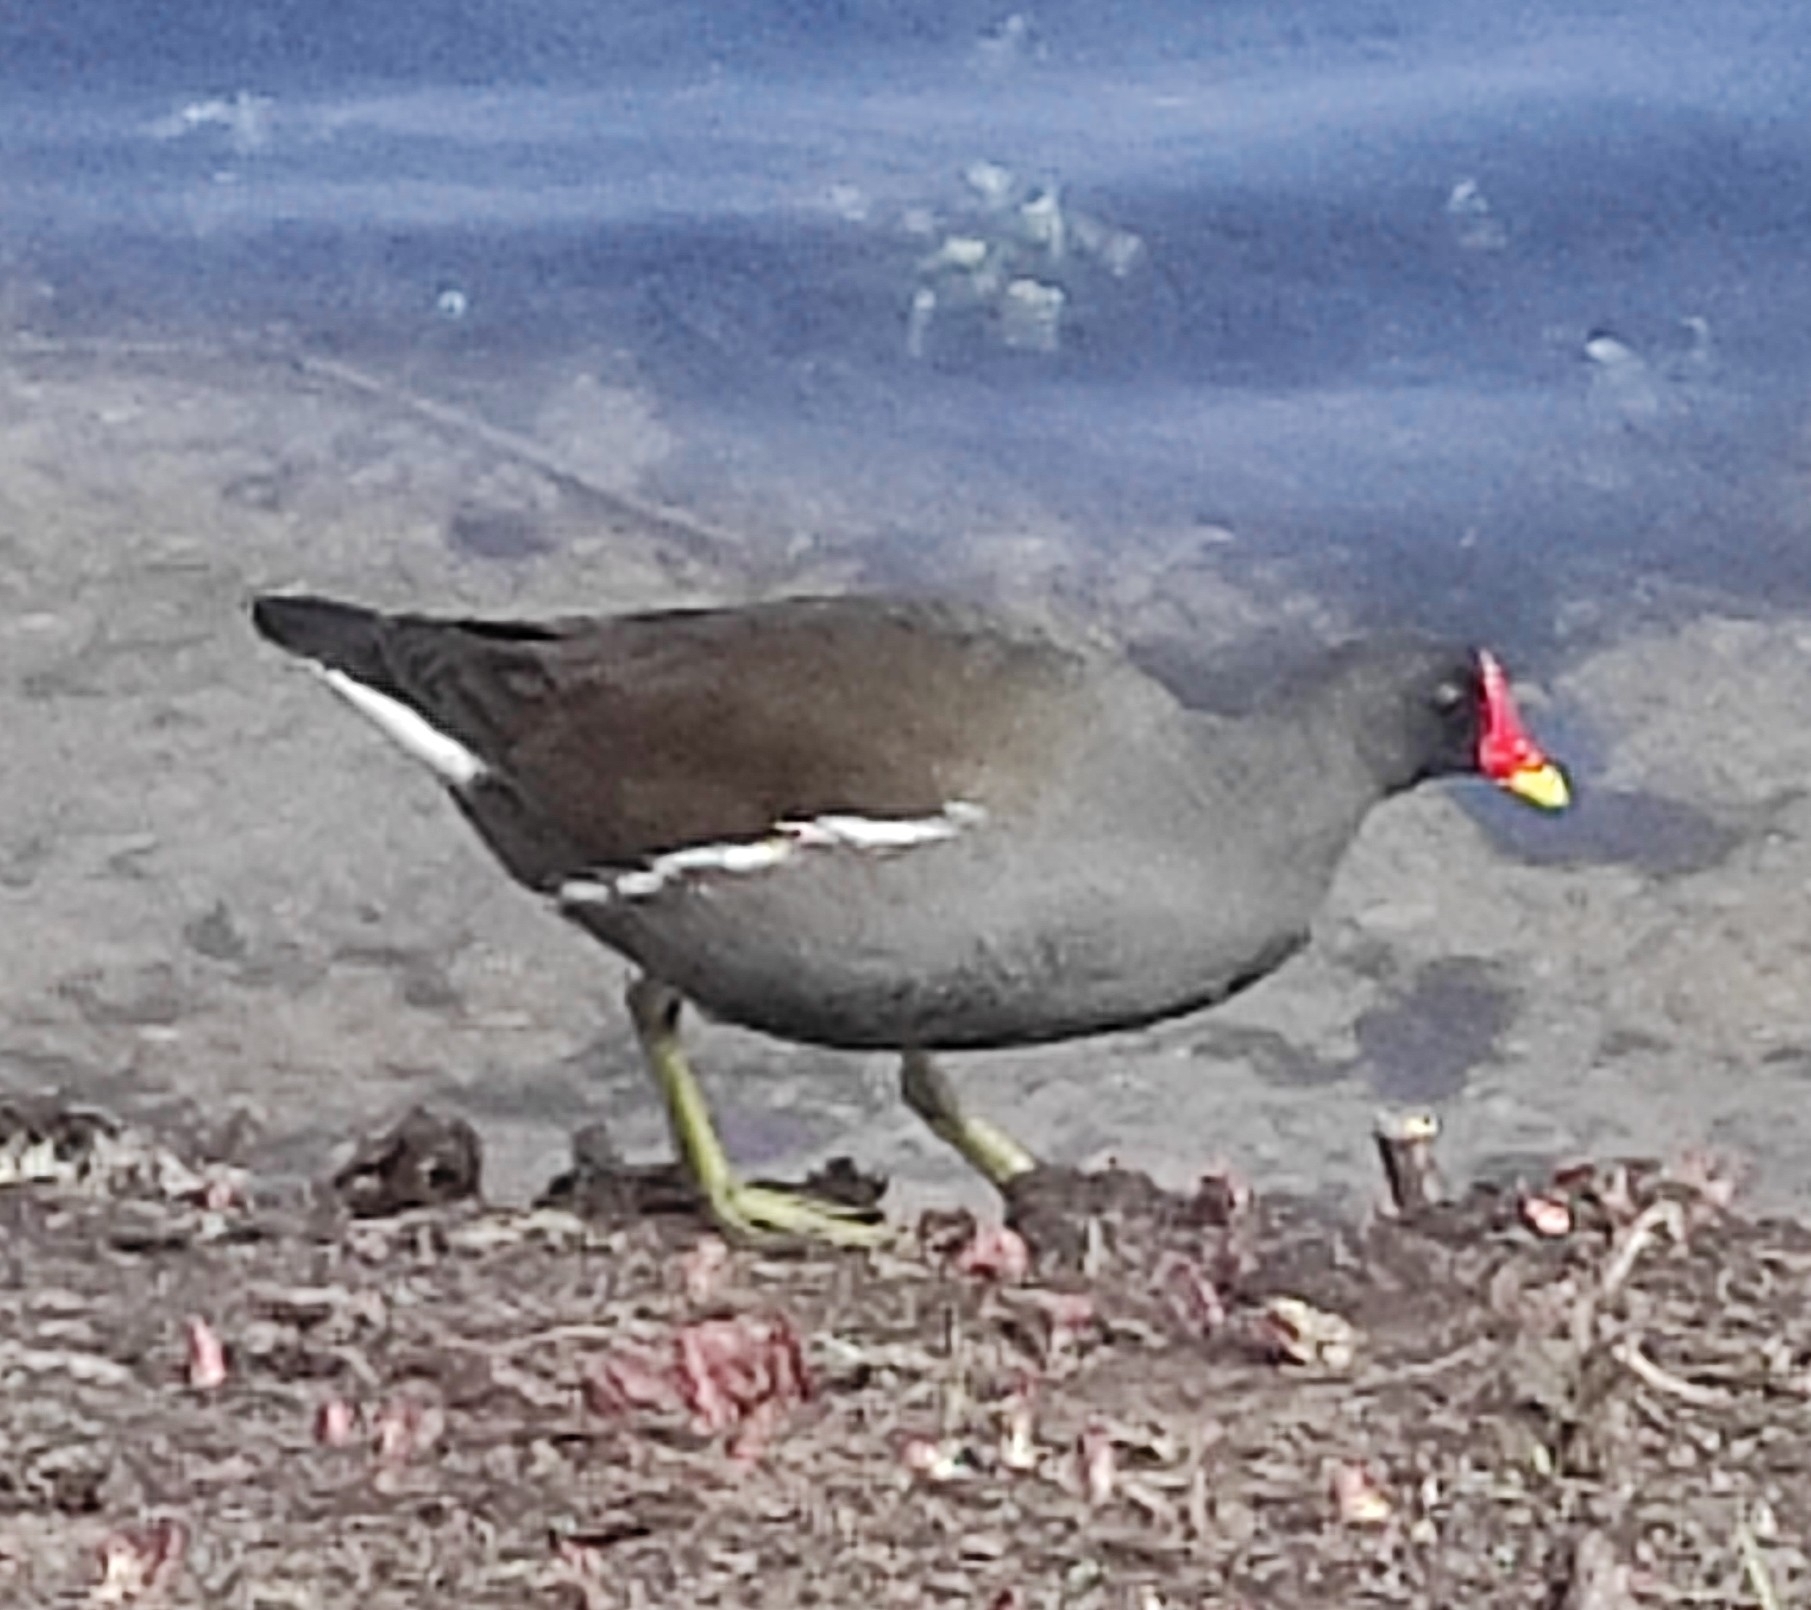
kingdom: Animalia
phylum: Chordata
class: Aves
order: Gruiformes
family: Rallidae
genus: Gallinula
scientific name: Gallinula chloropus
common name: Common moorhen
